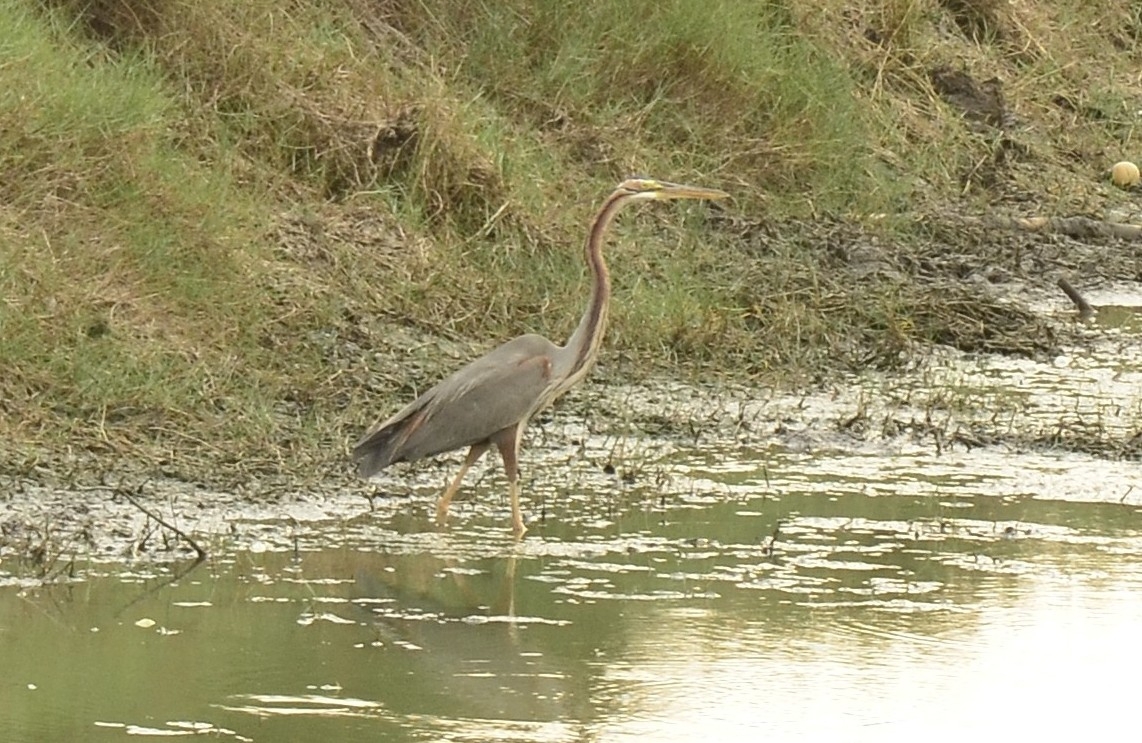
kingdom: Animalia
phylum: Chordata
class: Aves
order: Pelecaniformes
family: Ardeidae
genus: Ardea
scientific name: Ardea purpurea
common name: Purple heron
